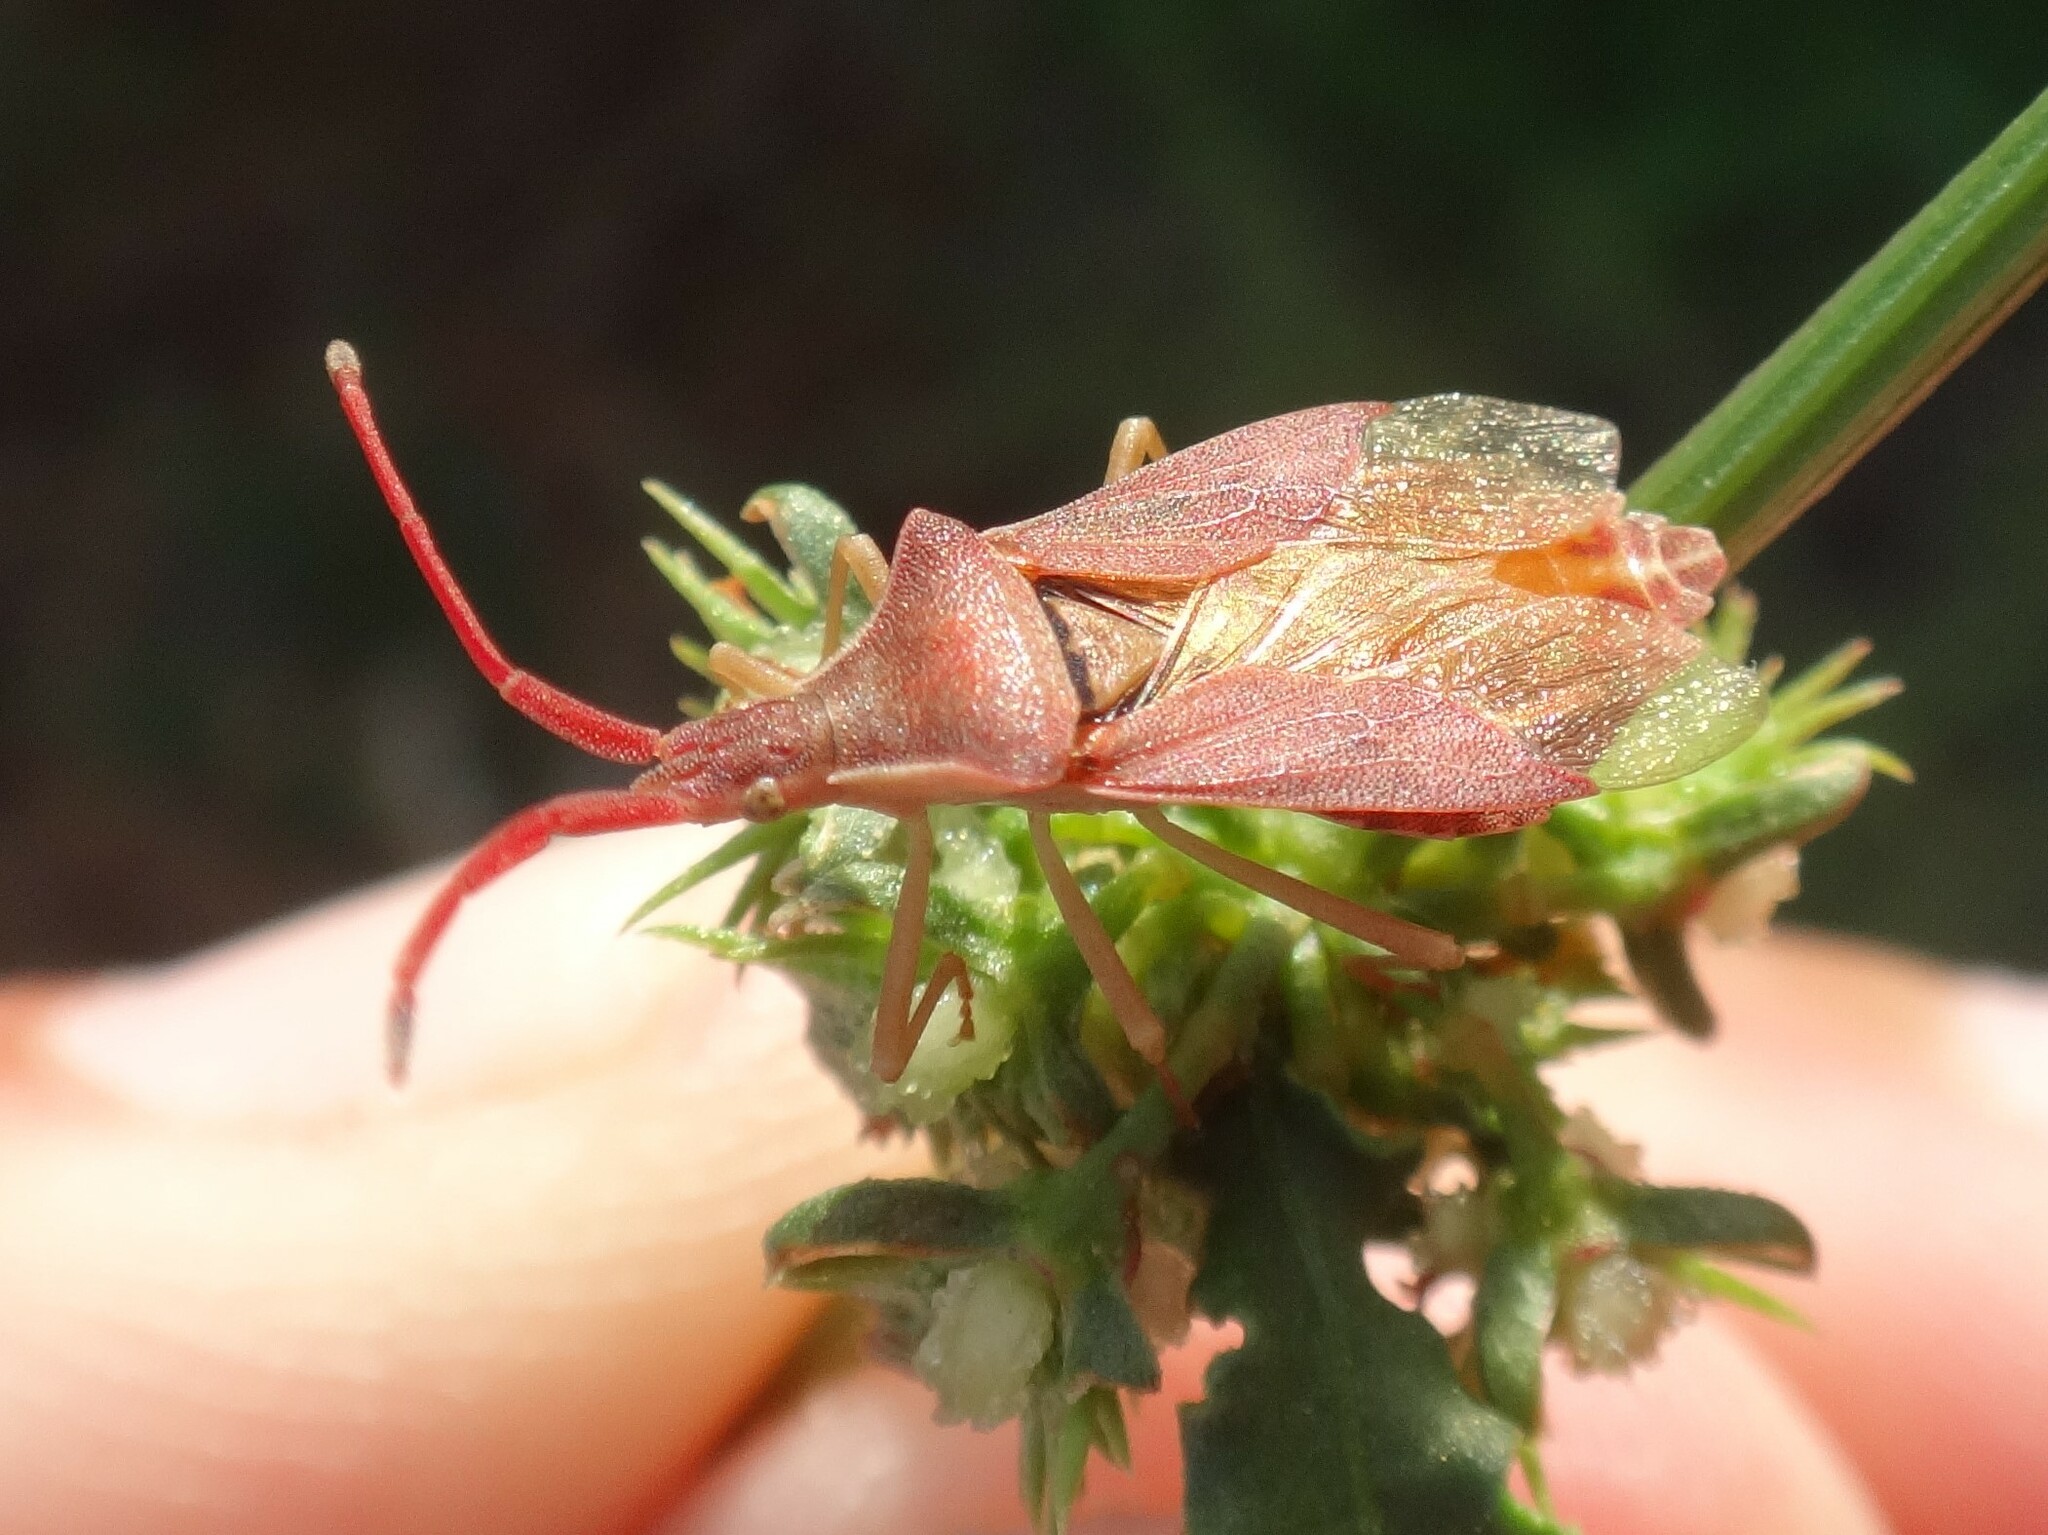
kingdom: Animalia
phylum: Arthropoda
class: Insecta
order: Hemiptera
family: Coreidae
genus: Haploprocta
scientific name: Haploprocta sulcicornis
